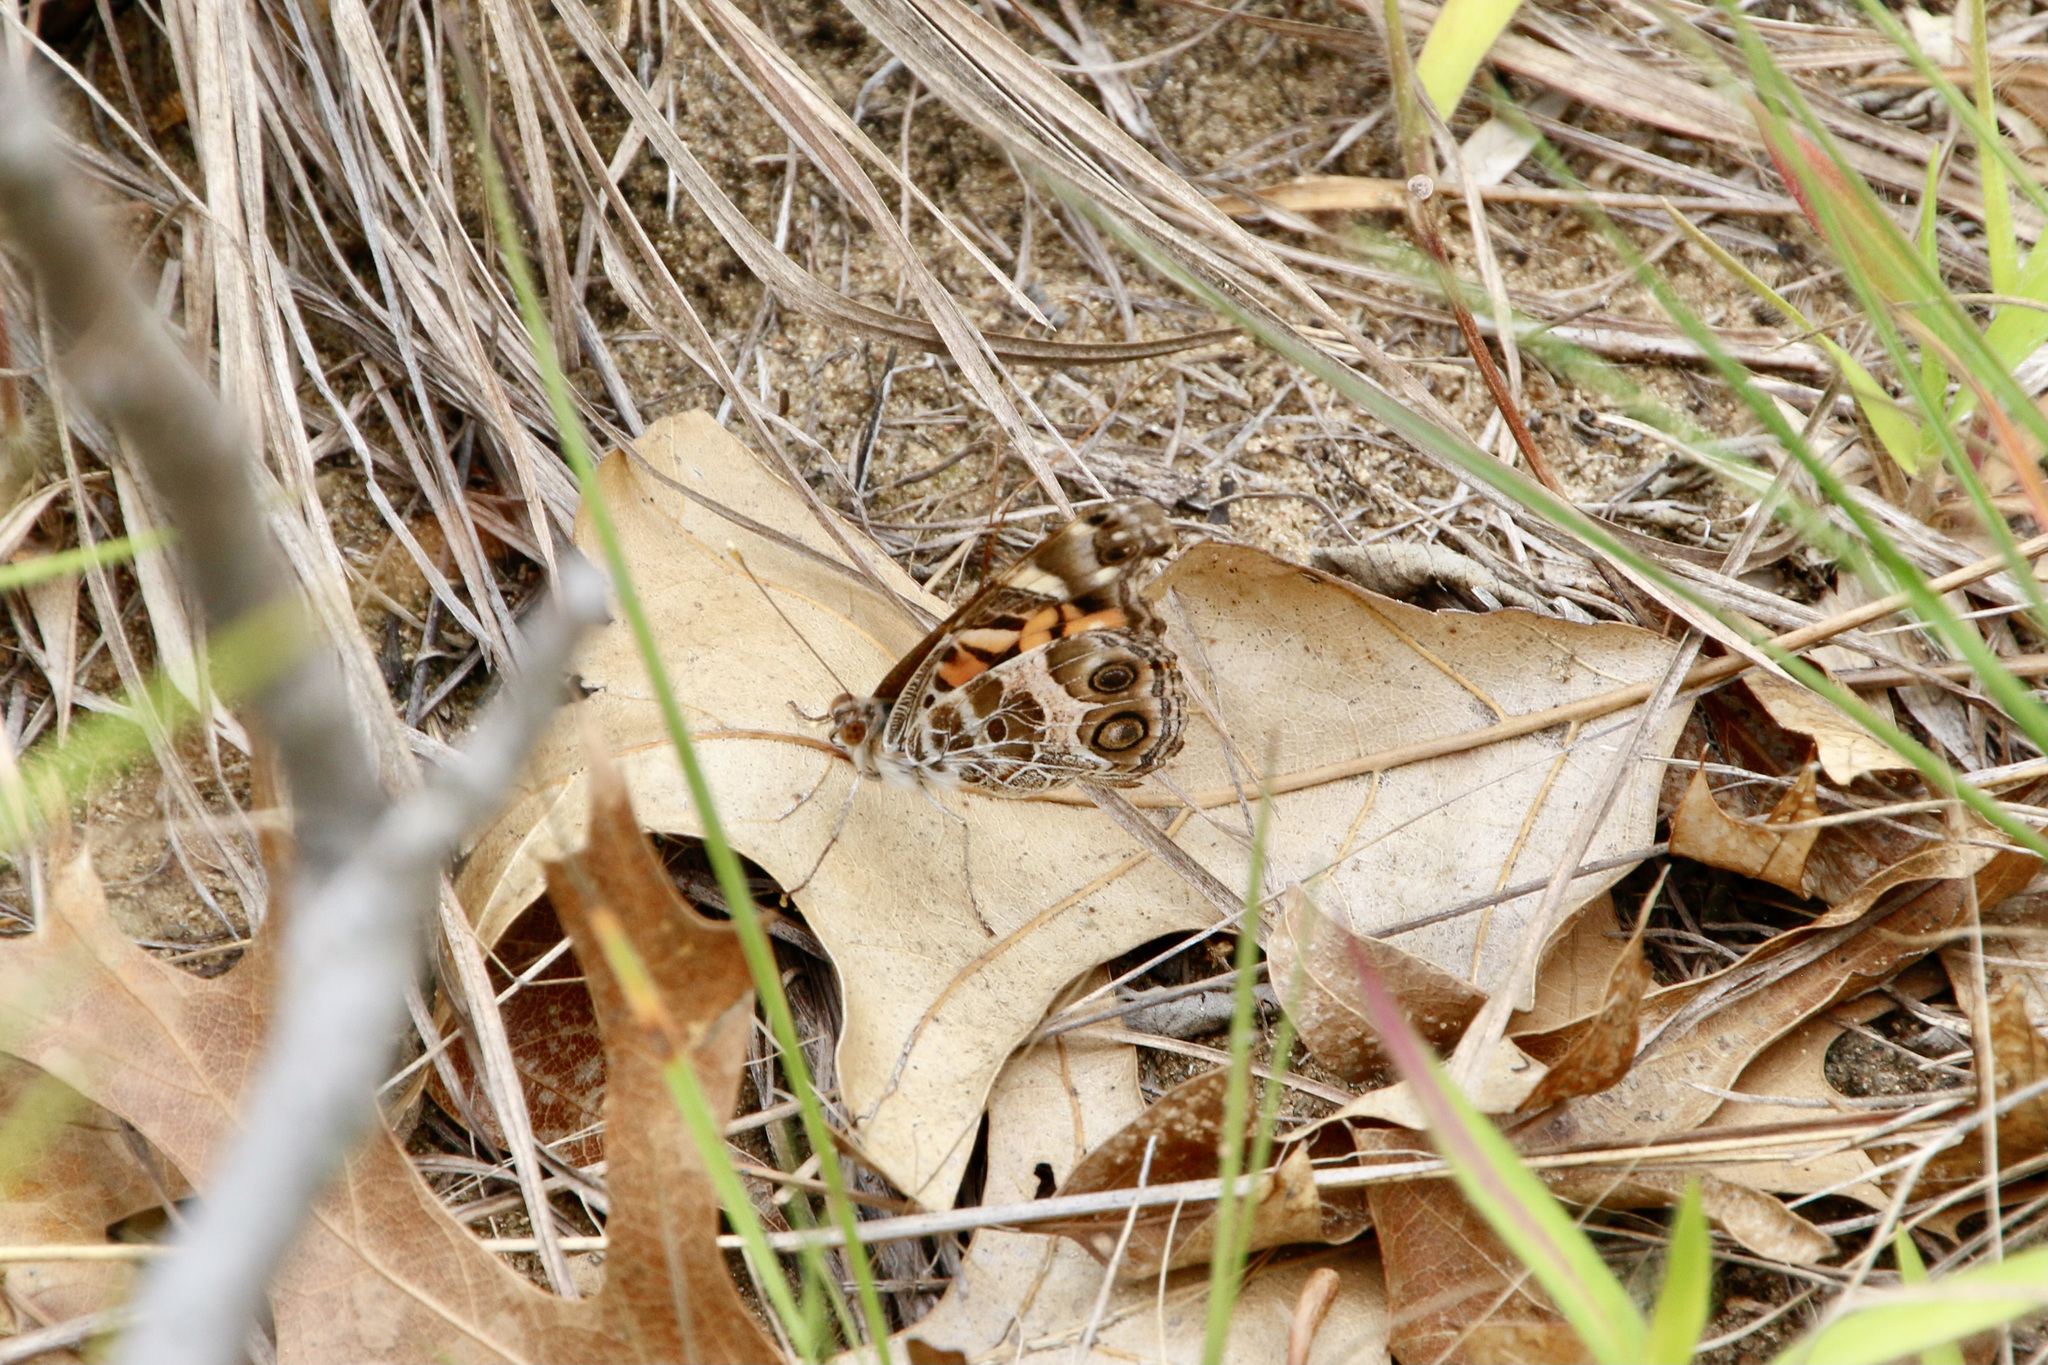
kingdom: Animalia
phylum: Arthropoda
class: Insecta
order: Lepidoptera
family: Nymphalidae
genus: Vanessa
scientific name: Vanessa virginiensis
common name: American lady
